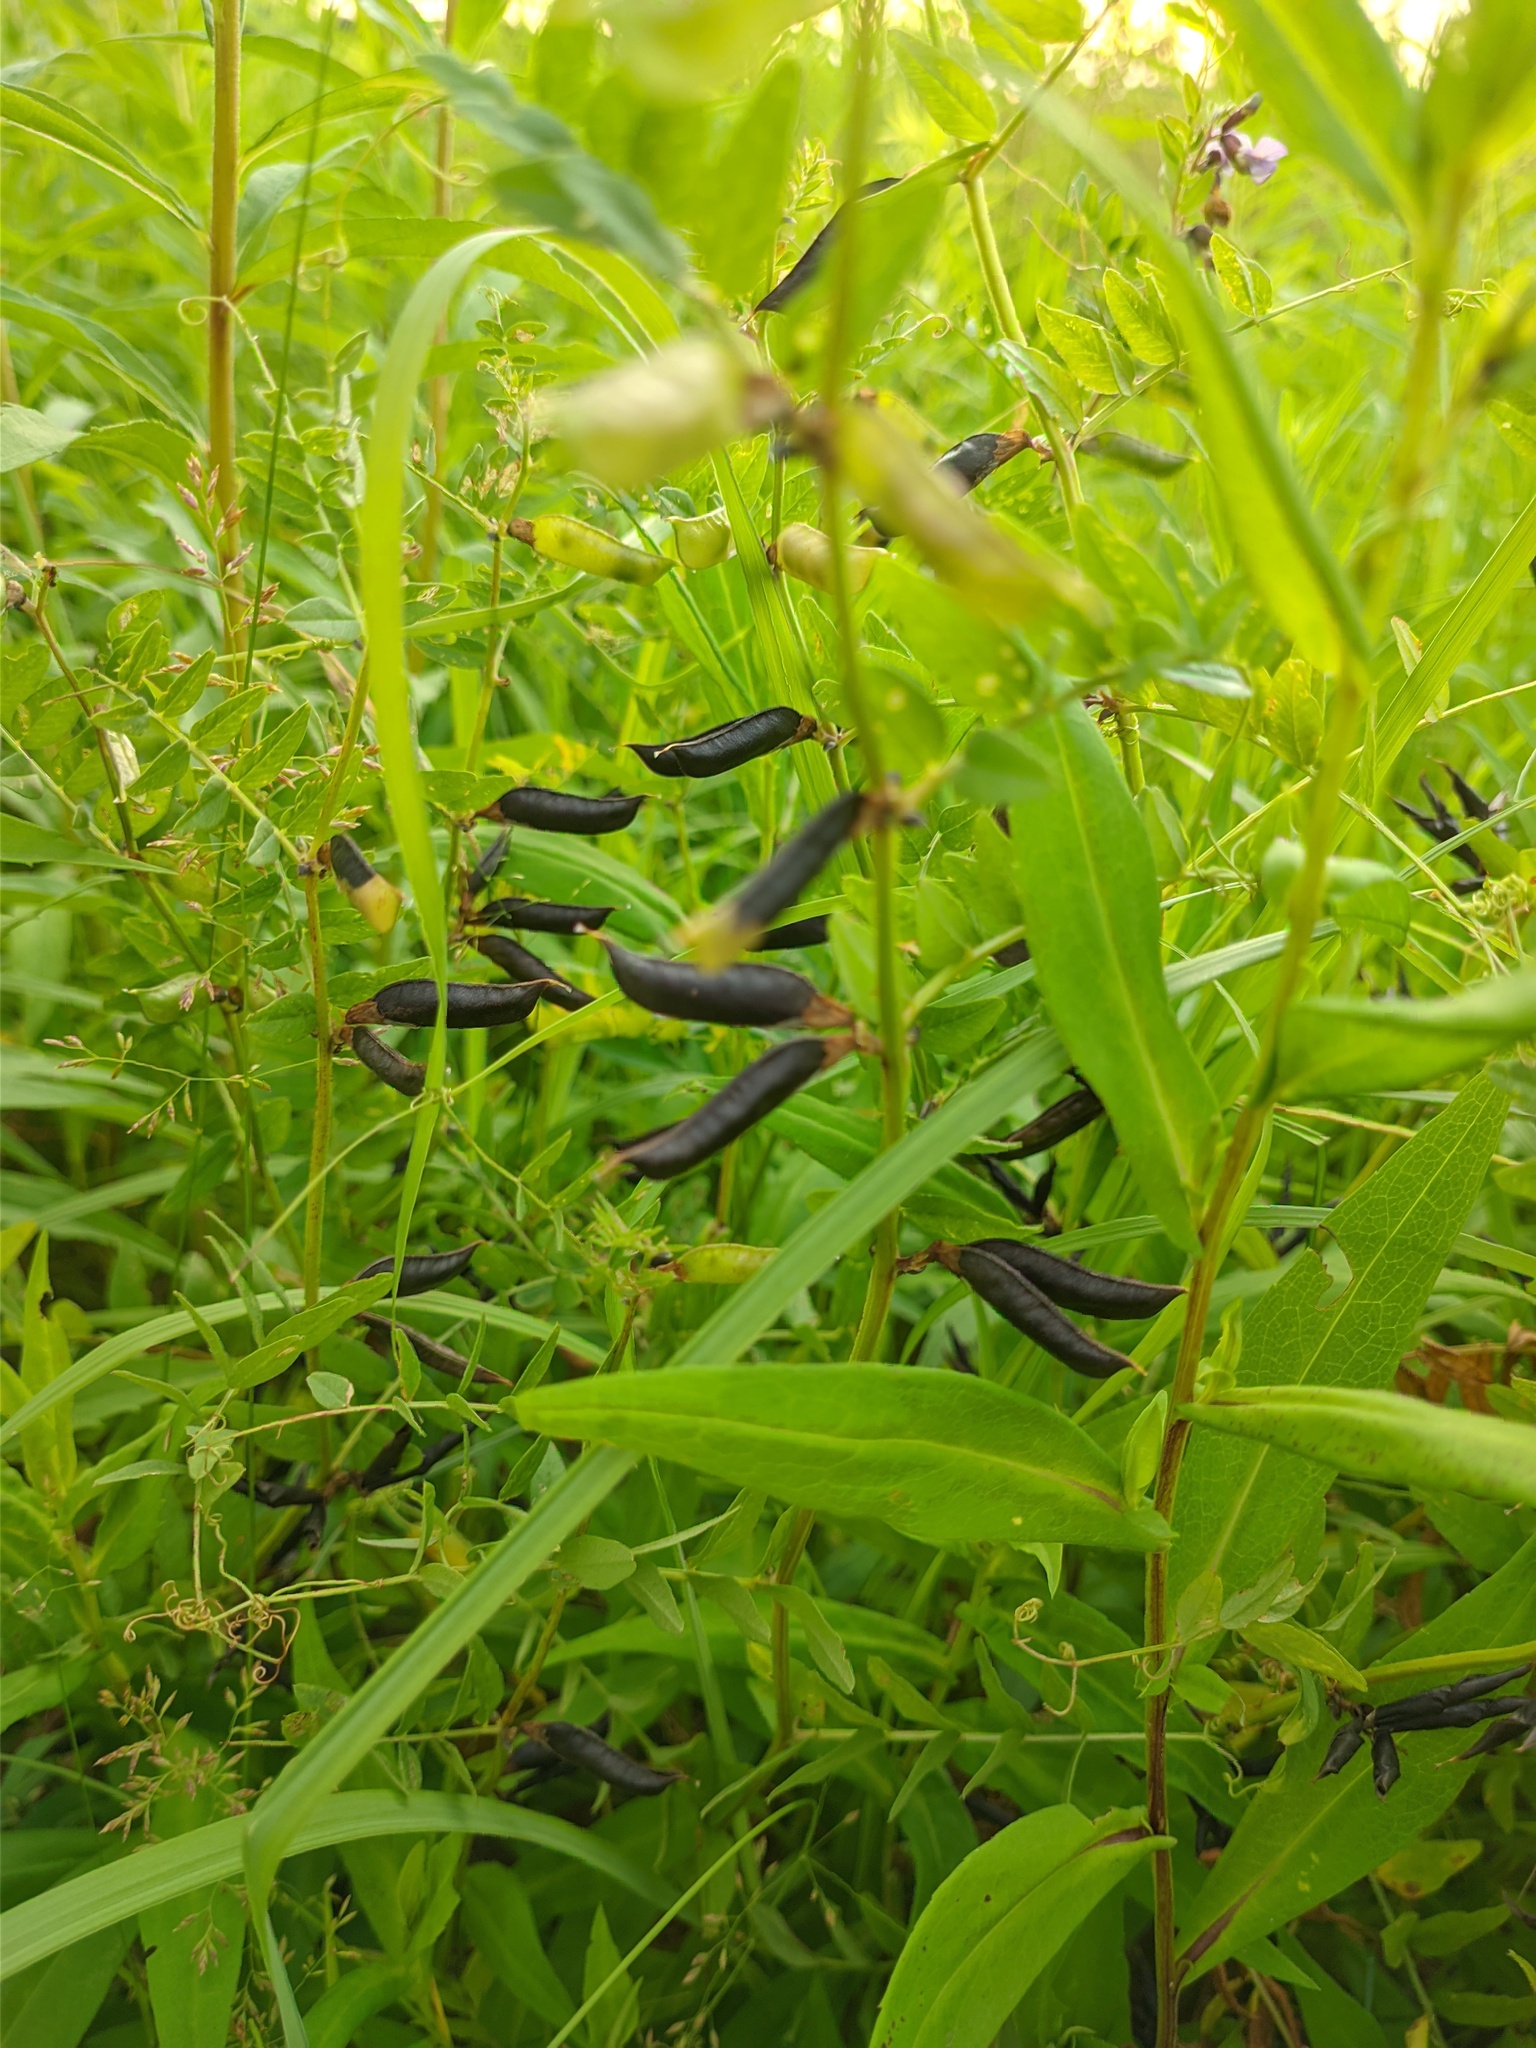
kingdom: Plantae
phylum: Tracheophyta
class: Magnoliopsida
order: Fabales
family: Fabaceae
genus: Vicia
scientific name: Vicia sepium
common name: Bush vetch
